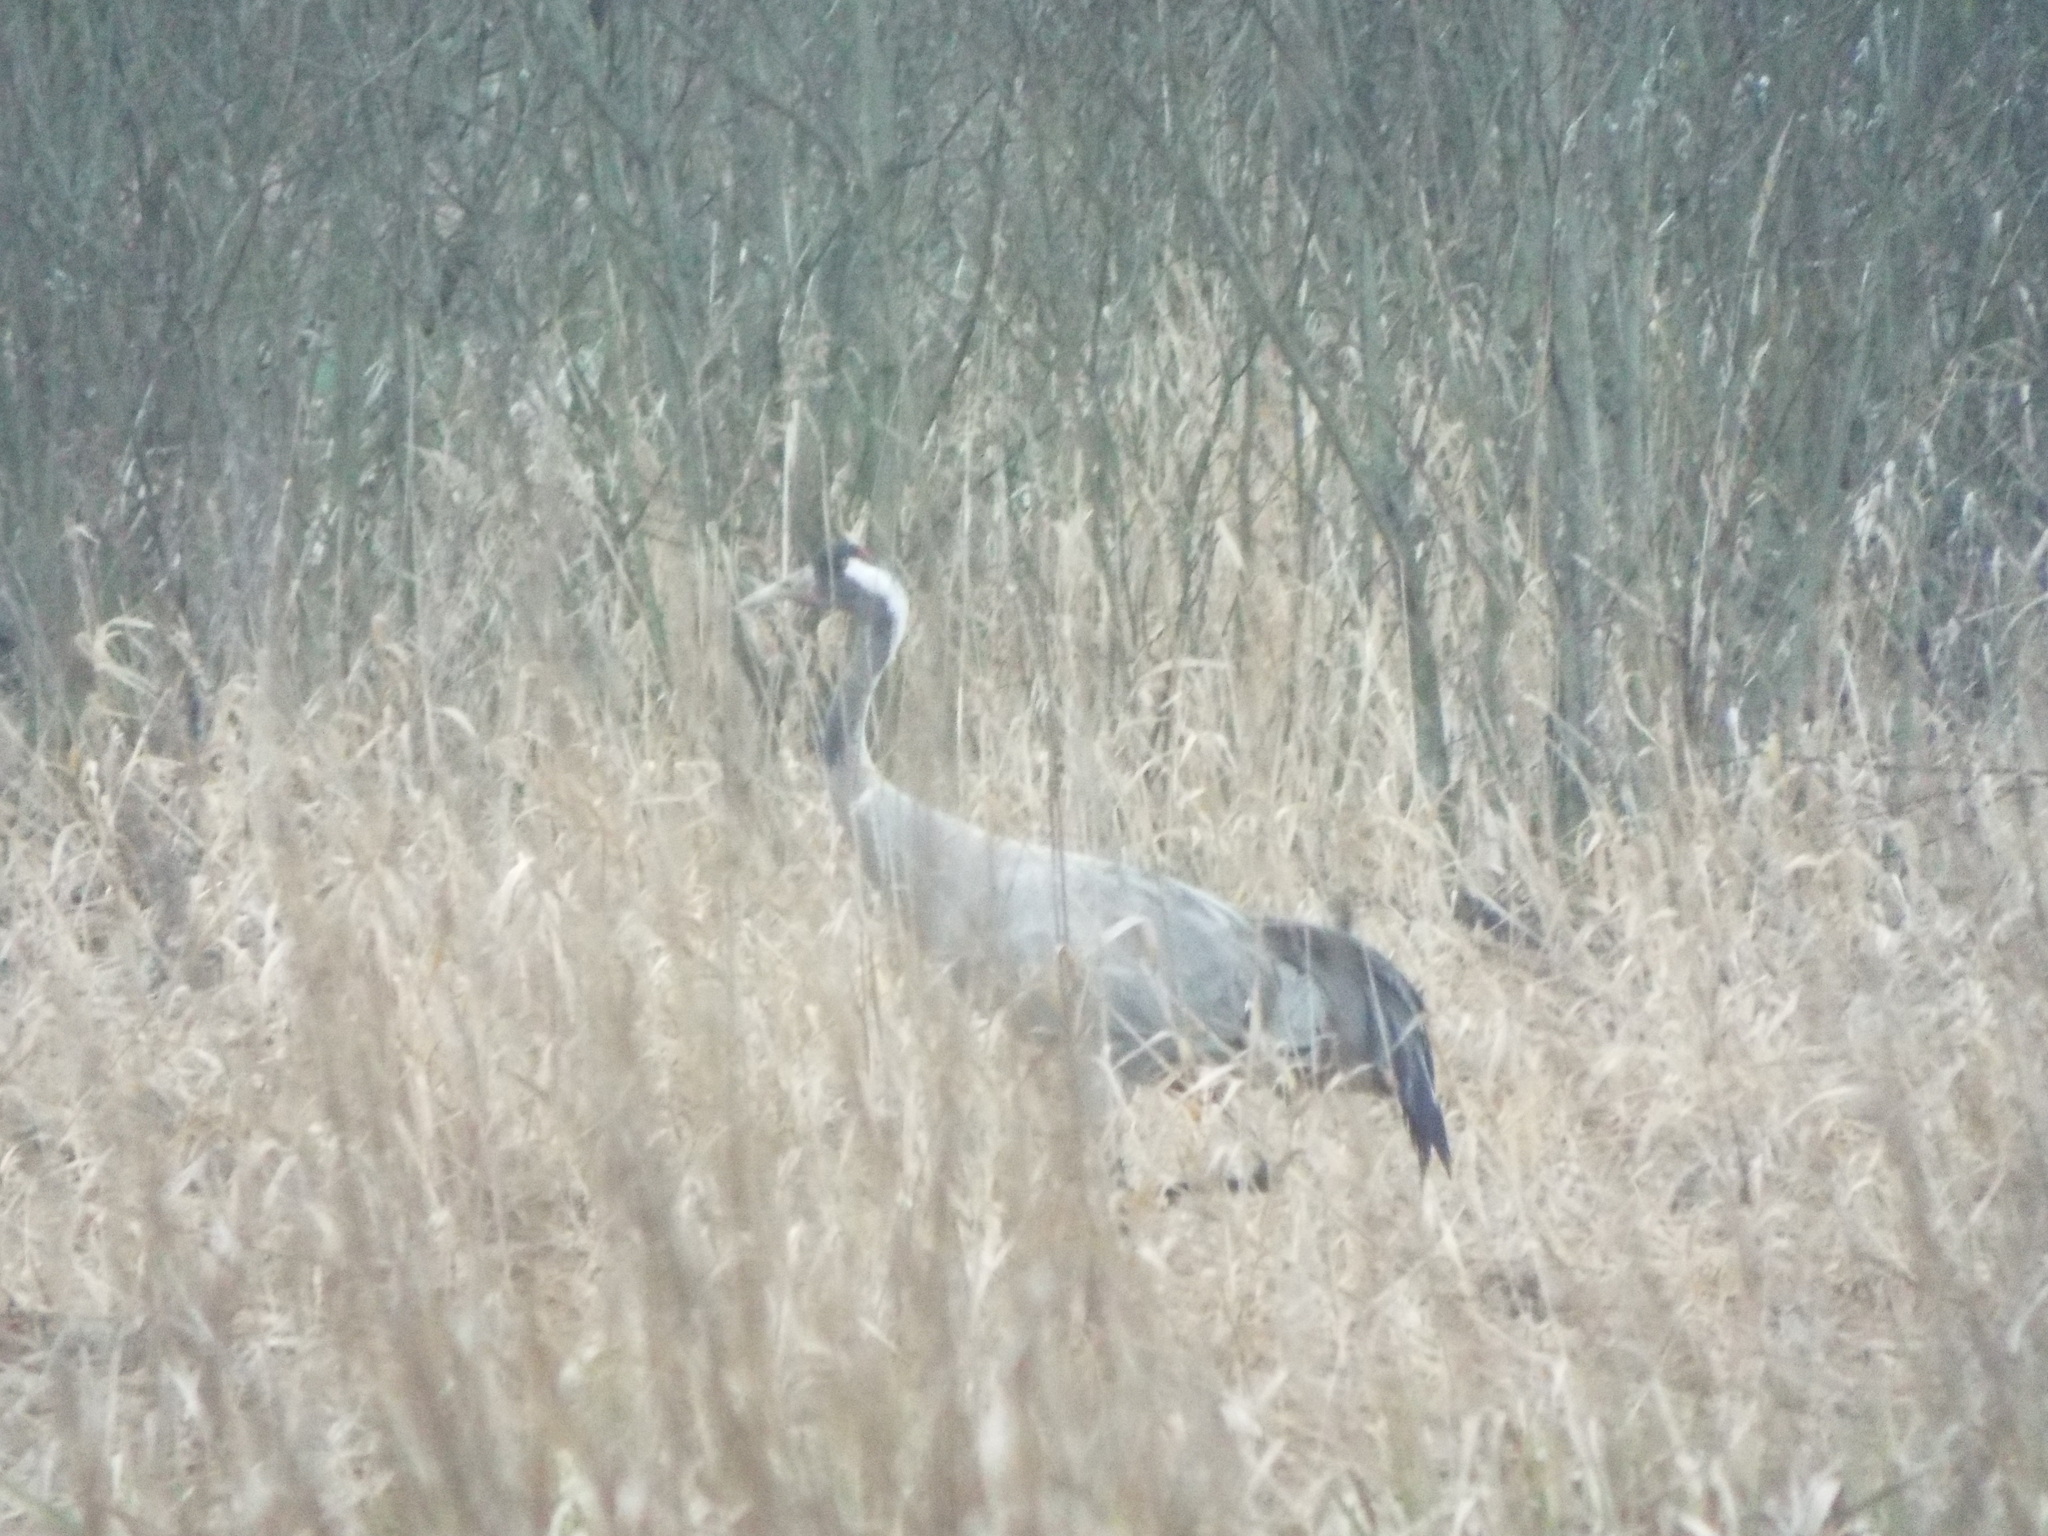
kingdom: Animalia
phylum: Chordata
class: Aves
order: Gruiformes
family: Gruidae
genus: Grus
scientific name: Grus grus
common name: Common crane
